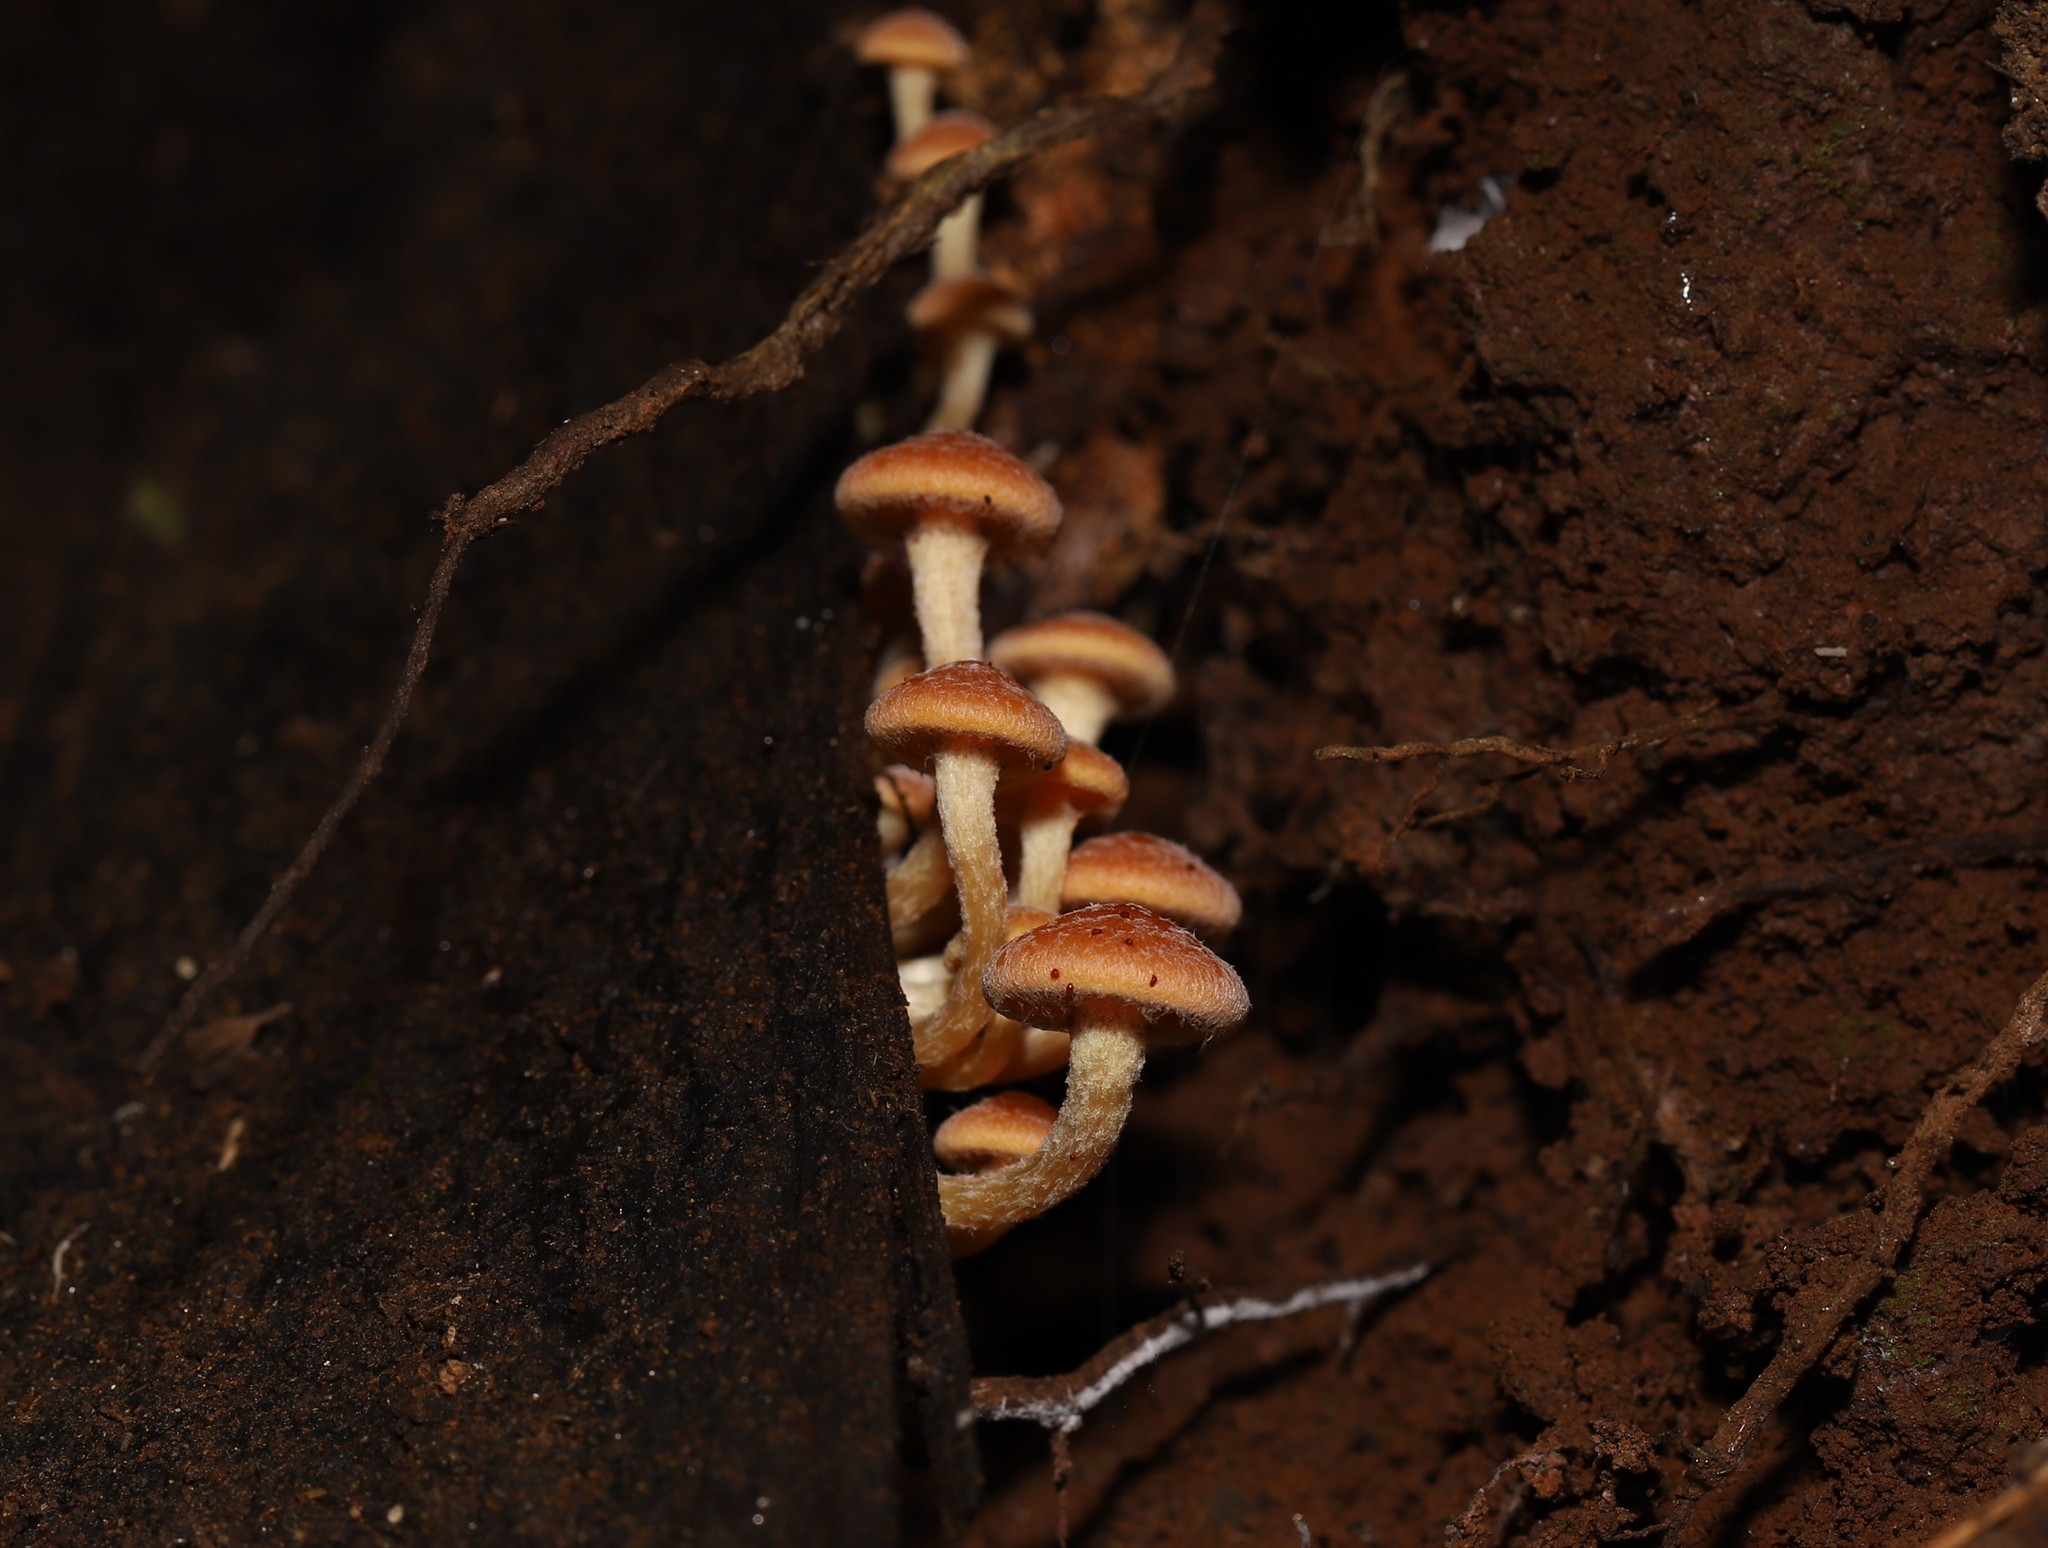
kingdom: Fungi
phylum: Basidiomycota
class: Agaricomycetes
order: Agaricales
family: Strophariaceae
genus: Hypholoma
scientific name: Hypholoma fasciculare
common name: Sulphur tuft
